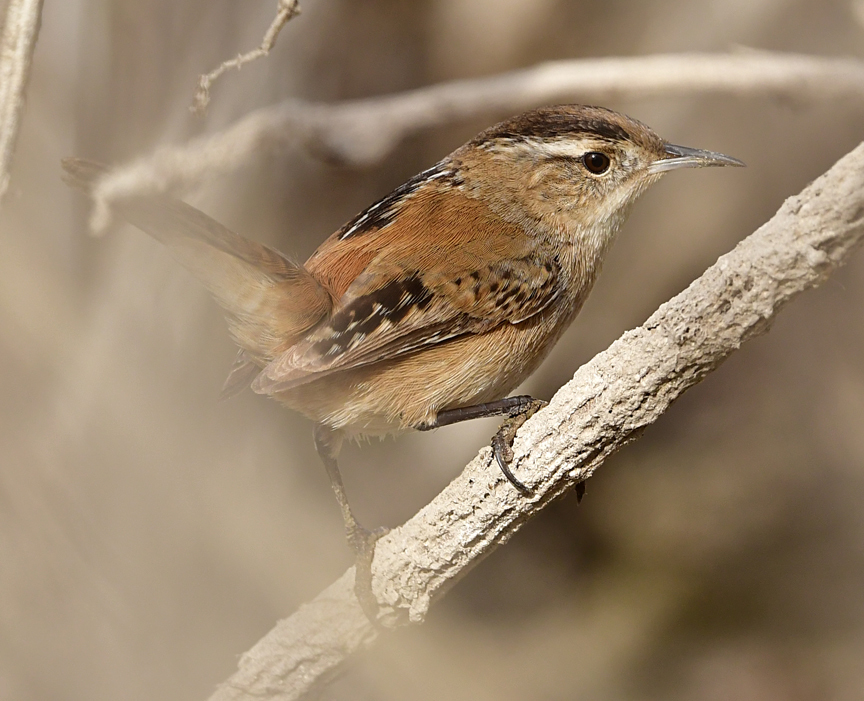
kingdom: Animalia
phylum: Chordata
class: Aves
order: Passeriformes
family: Troglodytidae
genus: Cistothorus
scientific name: Cistothorus palustris
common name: Marsh wren
